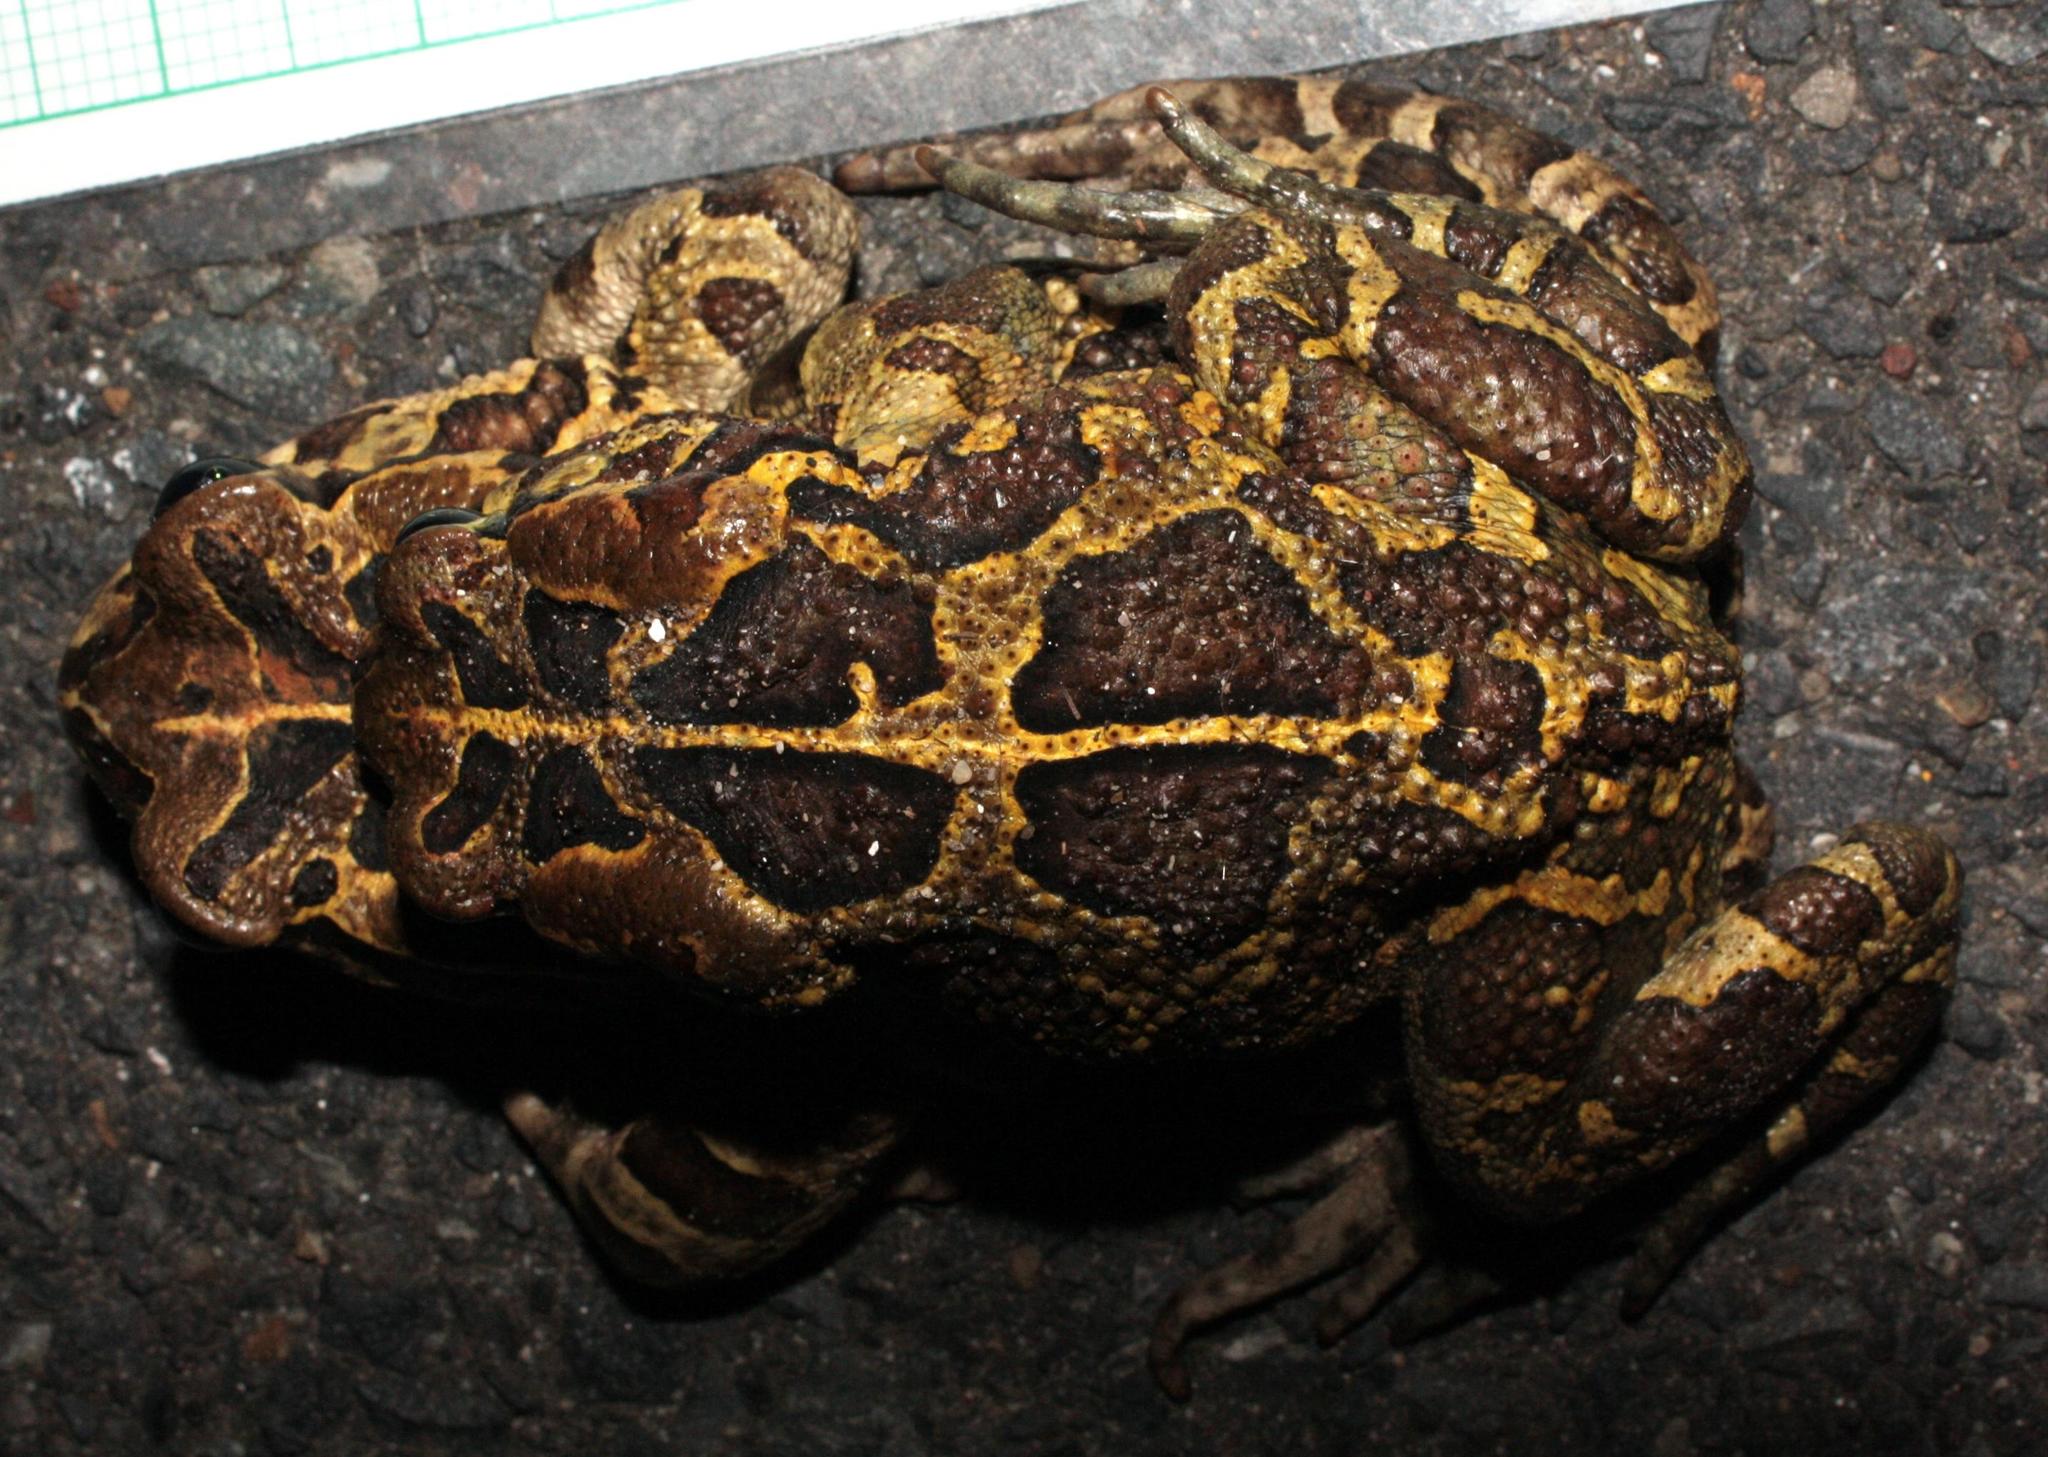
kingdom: Animalia
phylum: Chordata
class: Amphibia
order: Anura
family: Bufonidae
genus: Sclerophrys
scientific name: Sclerophrys pantherina
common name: Panther toad
